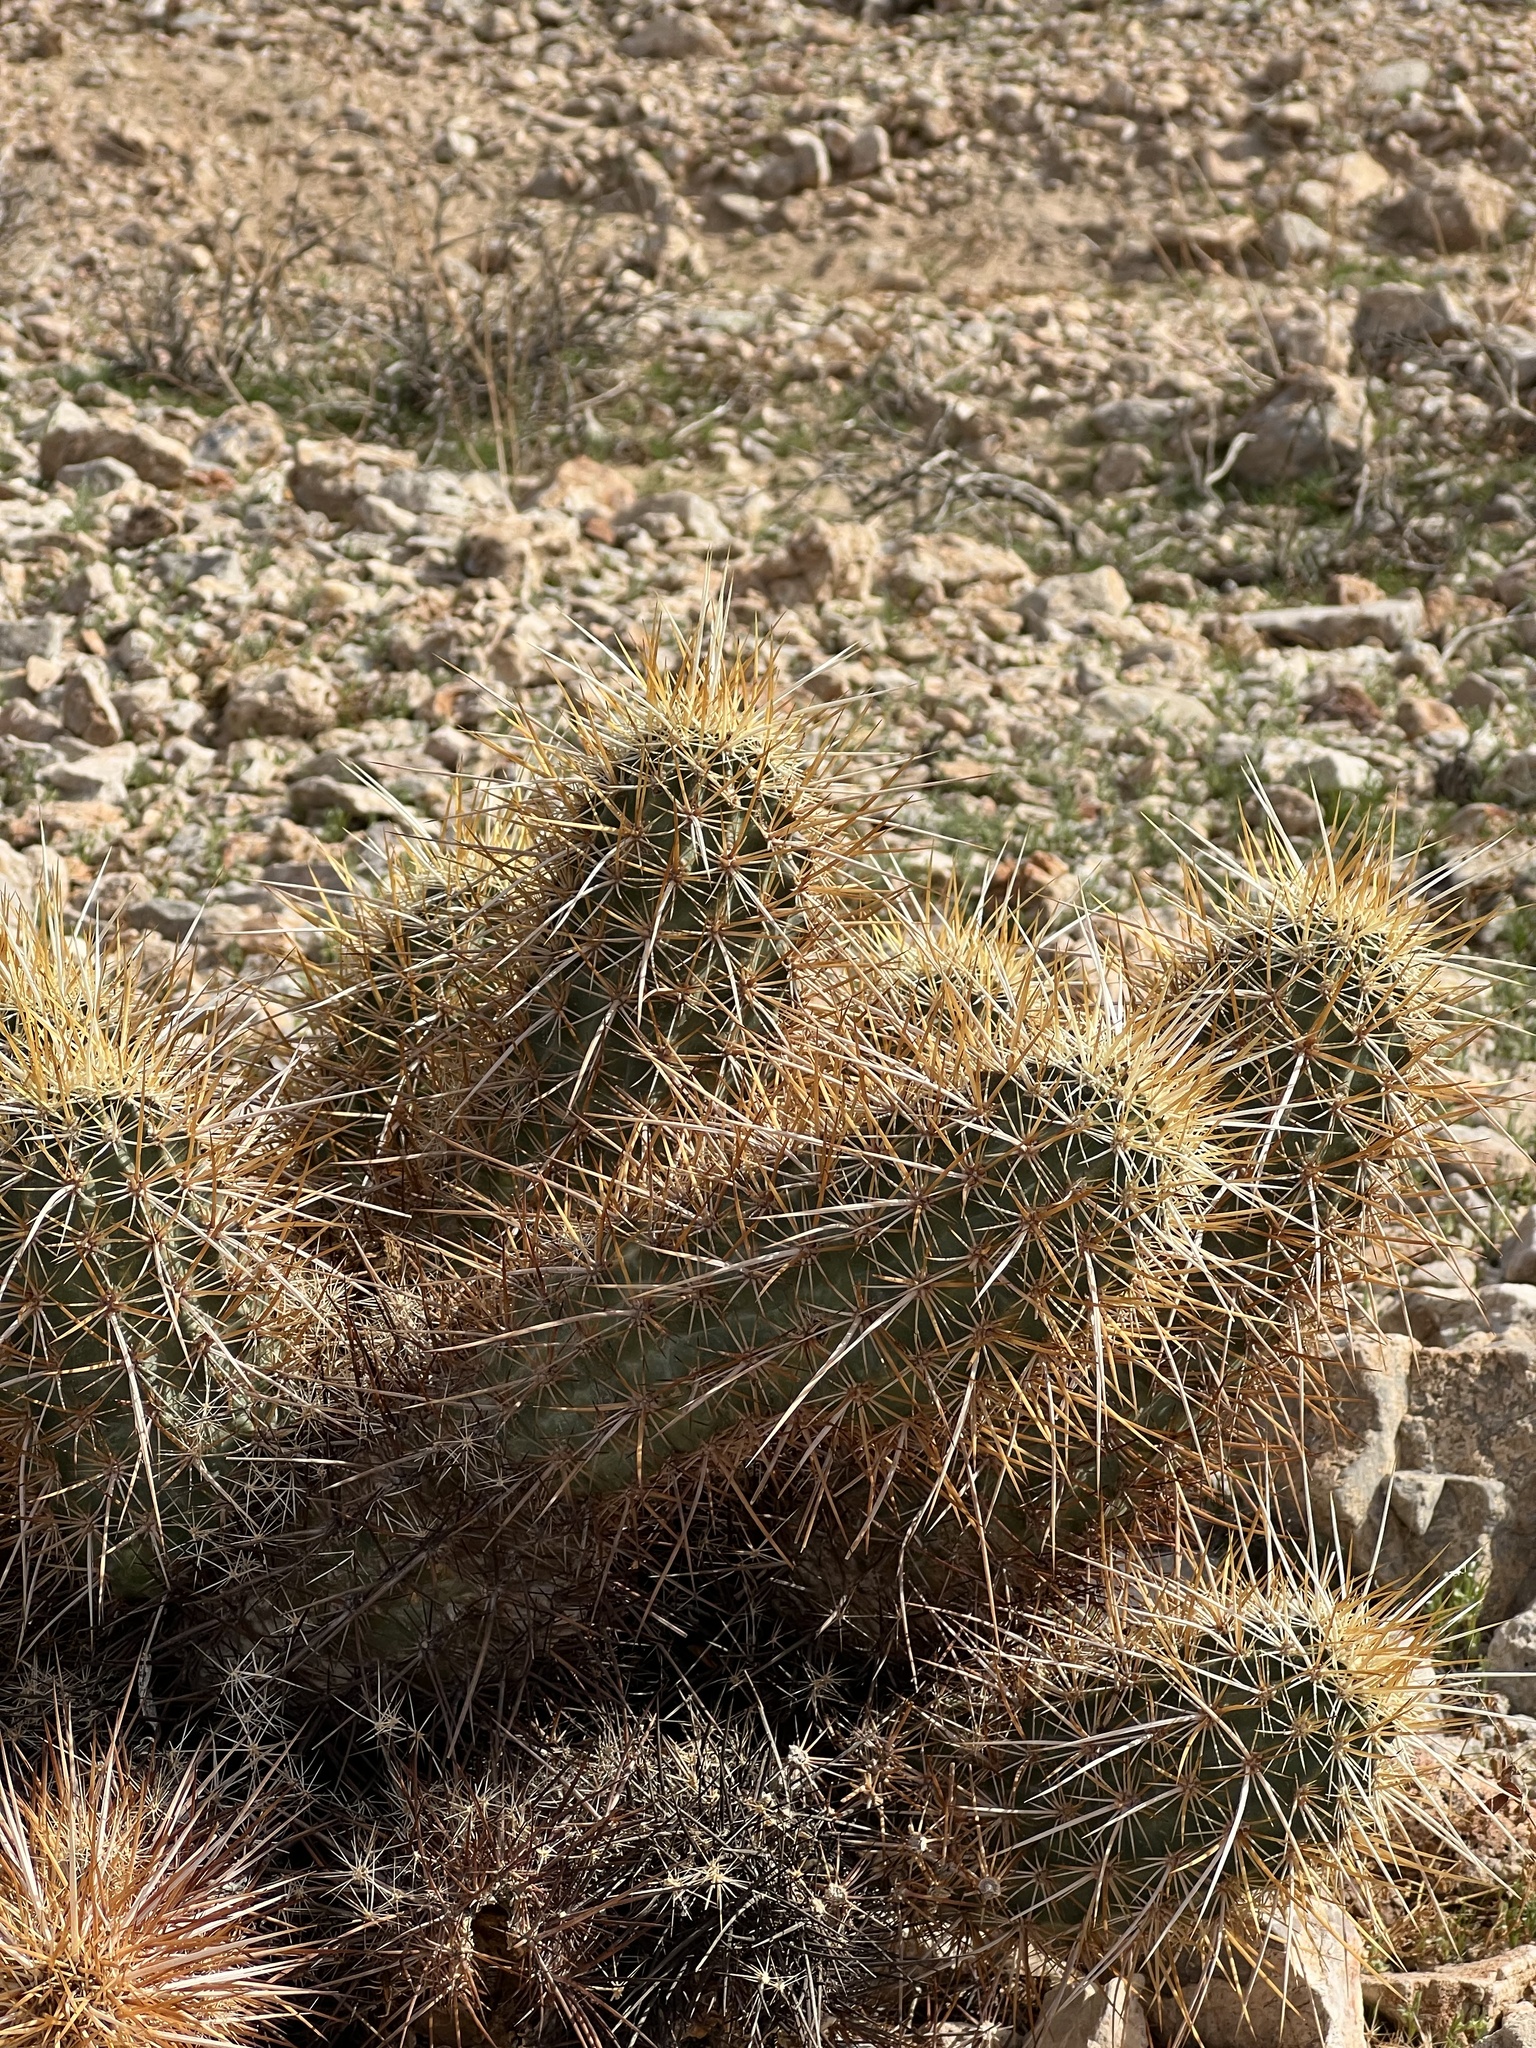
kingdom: Plantae
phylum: Tracheophyta
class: Magnoliopsida
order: Caryophyllales
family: Cactaceae
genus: Echinocereus
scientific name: Echinocereus engelmannii
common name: Engelmann's hedgehog cactus
